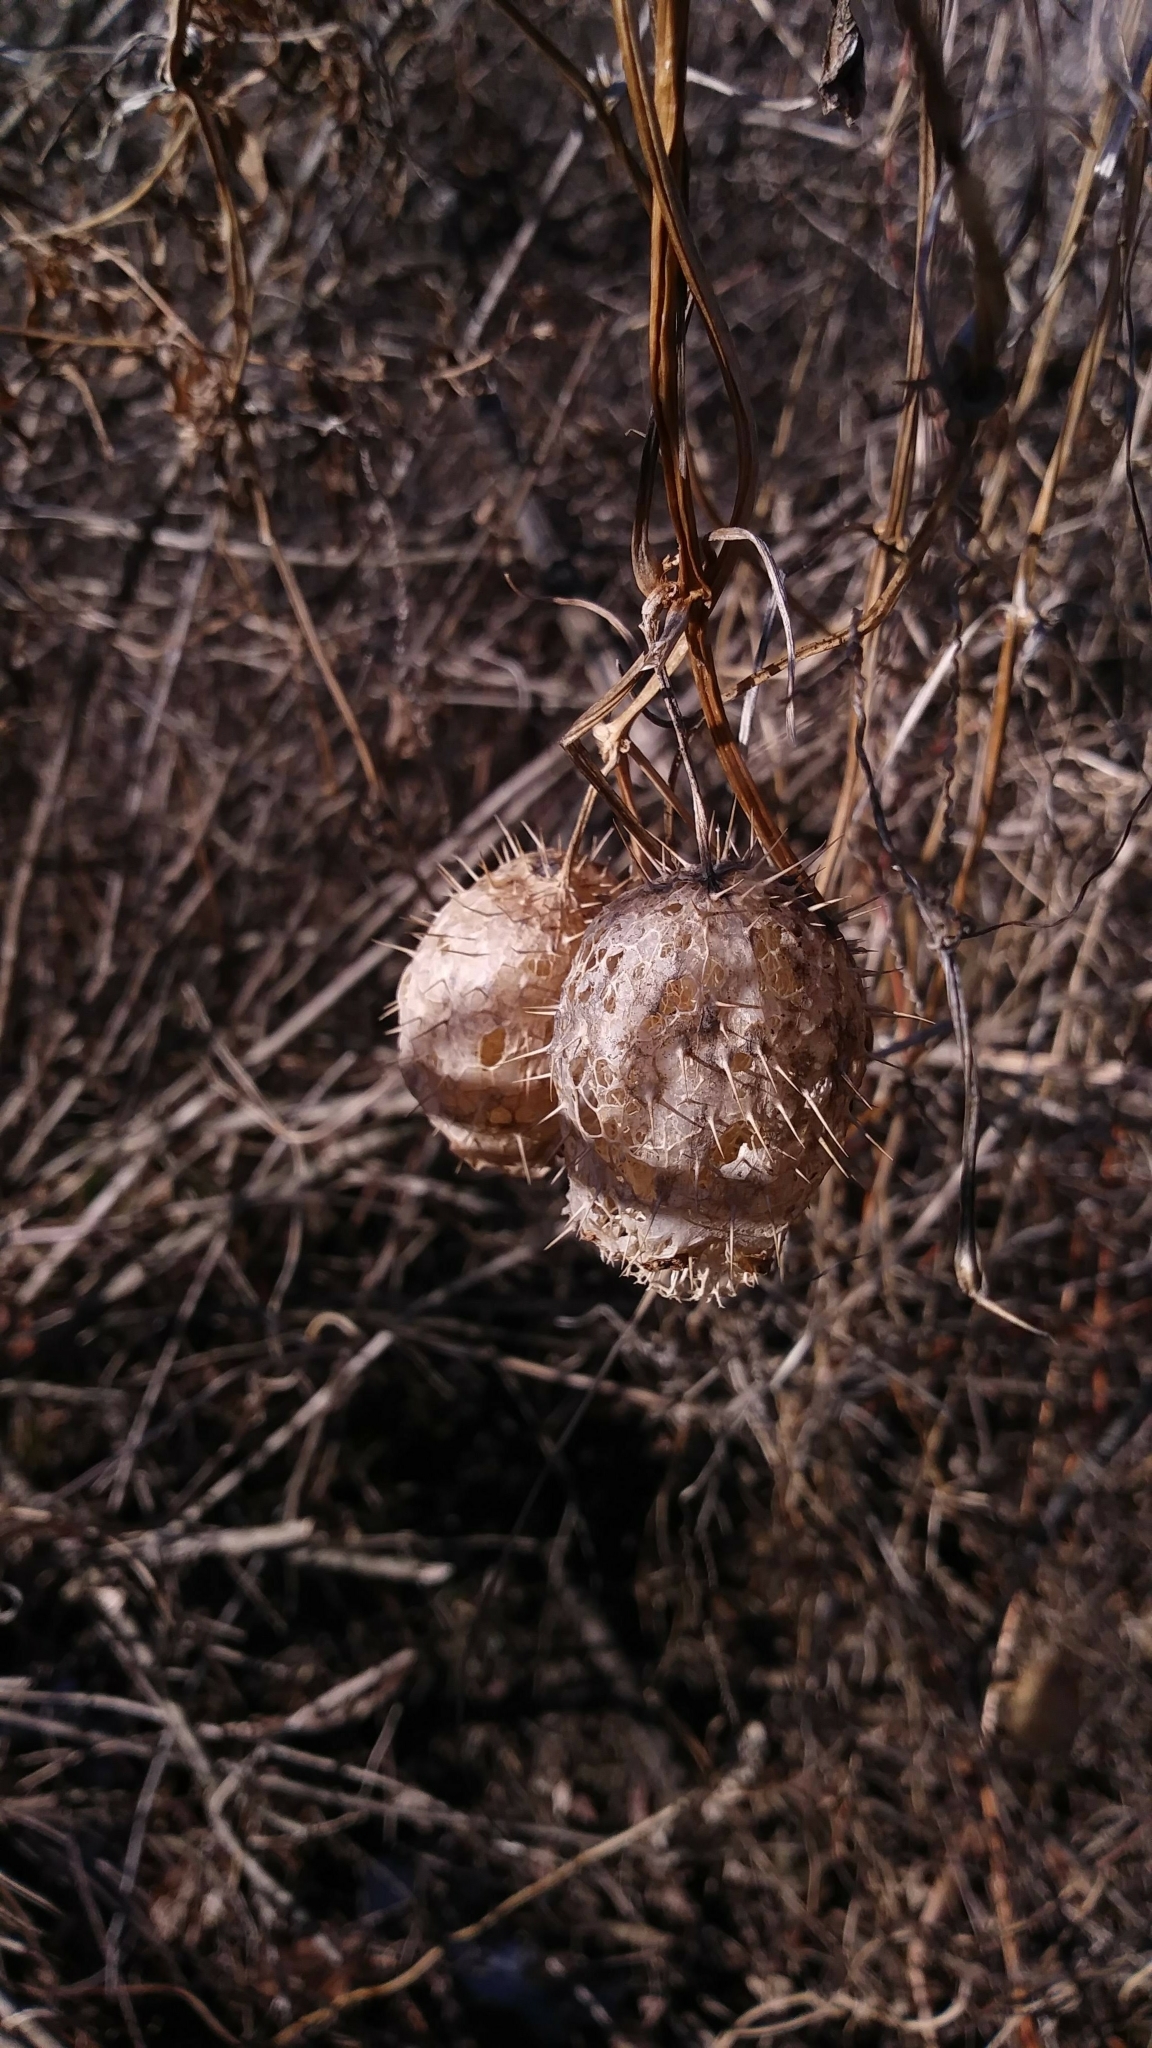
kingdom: Plantae
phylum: Tracheophyta
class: Magnoliopsida
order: Cucurbitales
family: Cucurbitaceae
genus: Echinocystis
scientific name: Echinocystis lobata
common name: Wild cucumber
